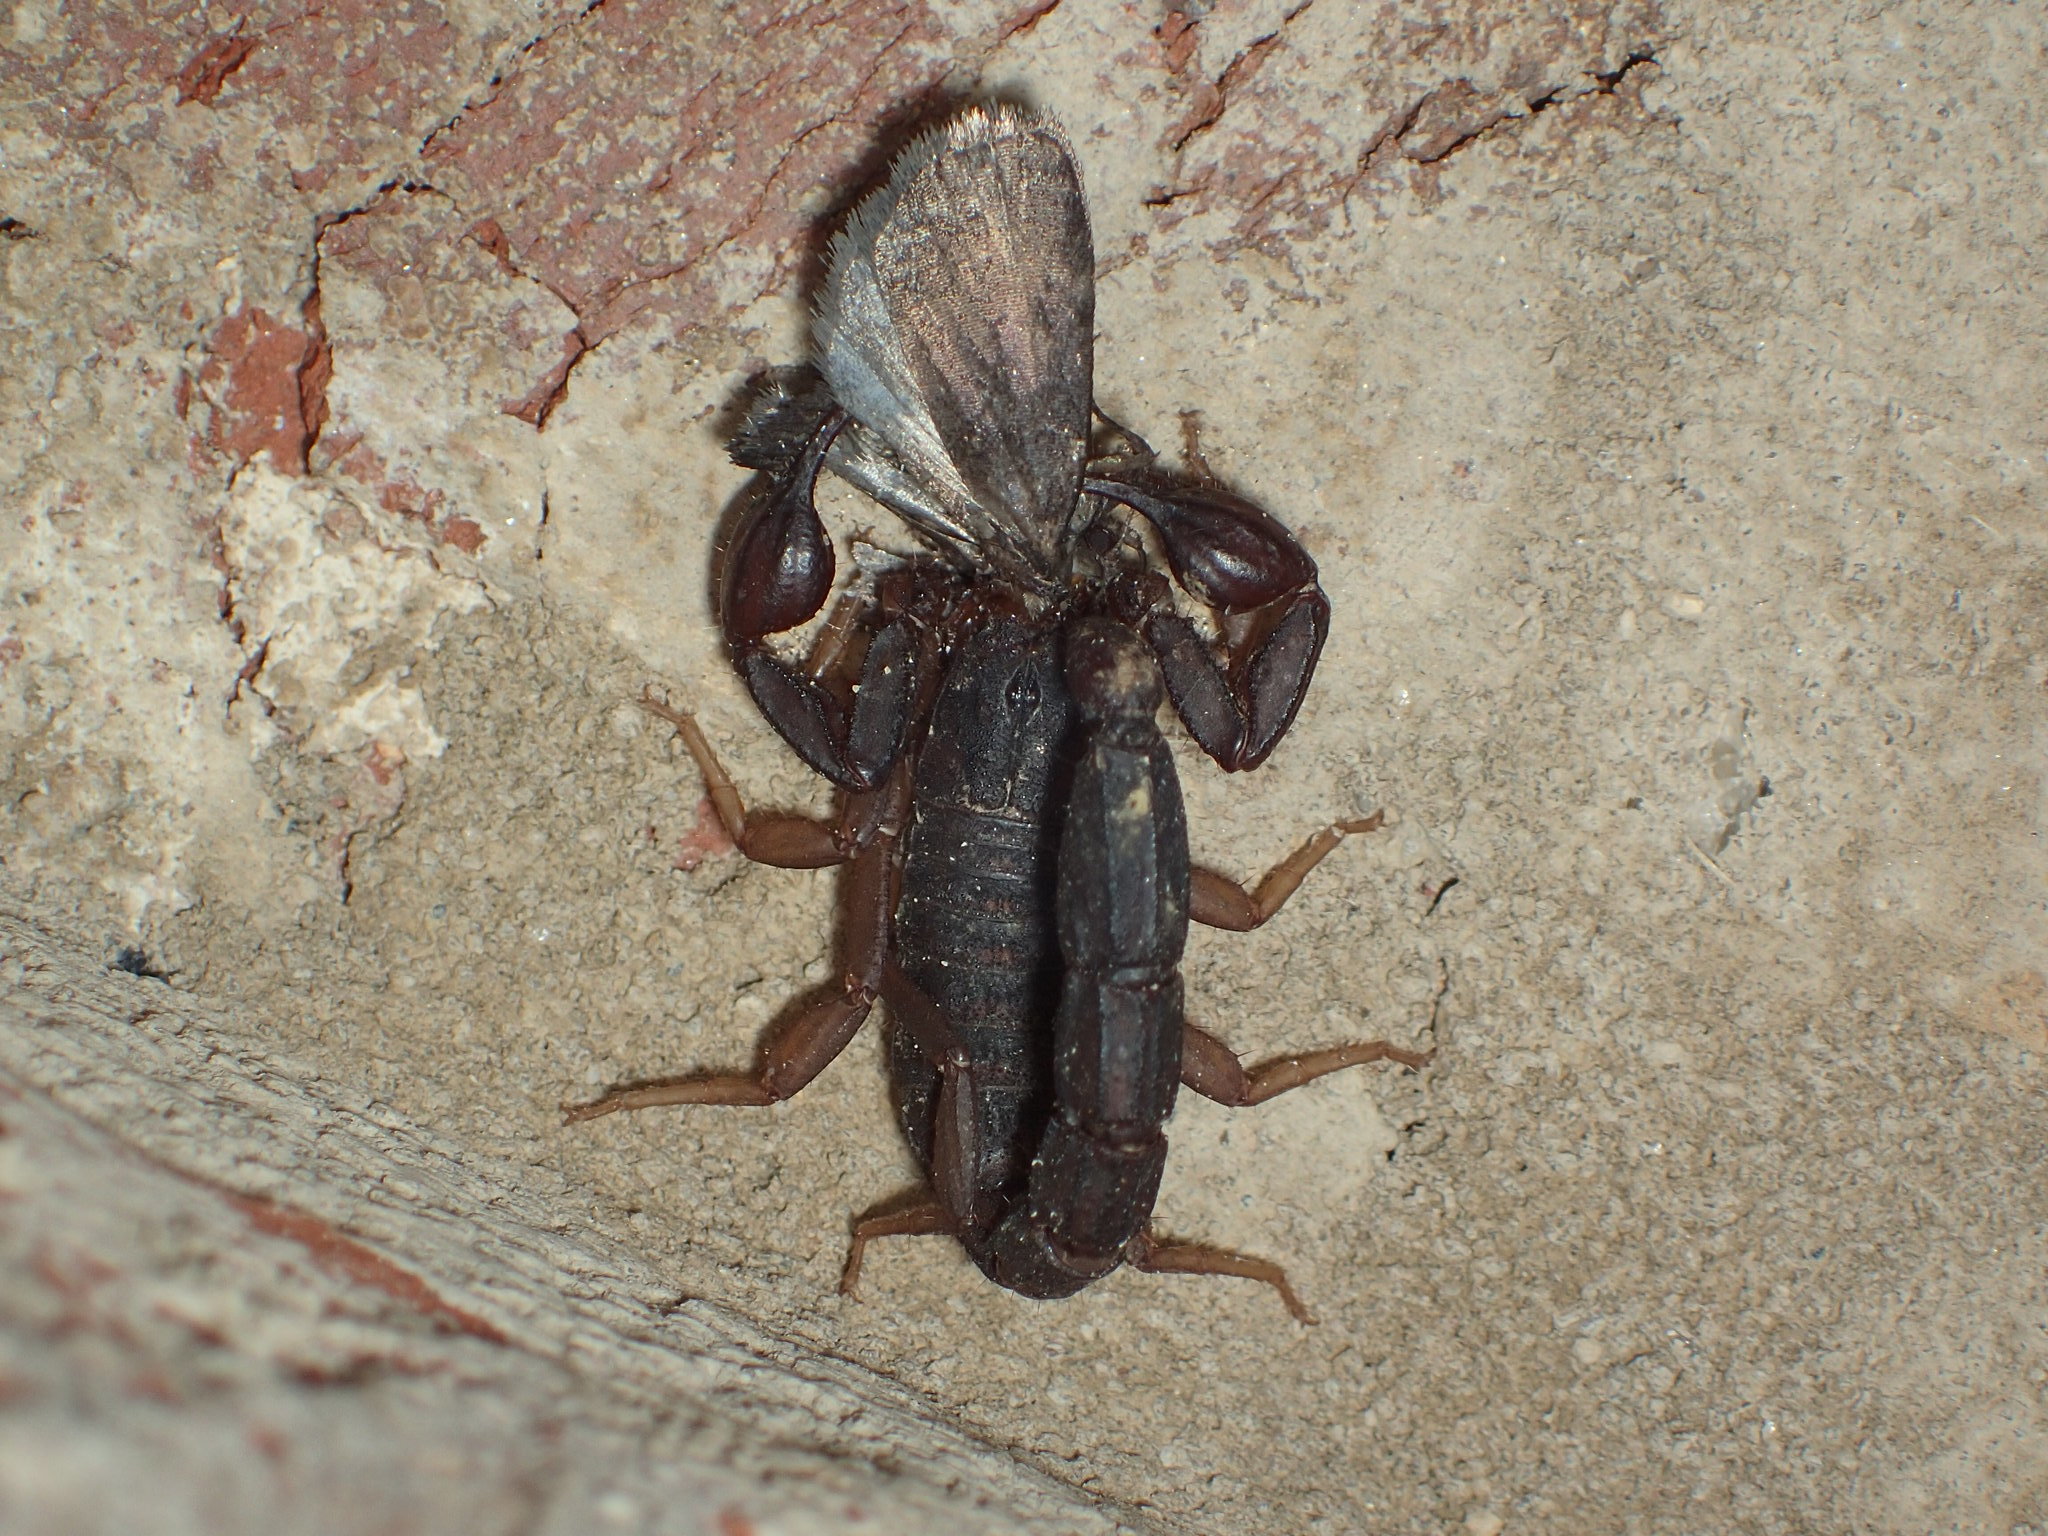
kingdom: Animalia
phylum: Arthropoda
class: Arachnida
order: Scorpiones
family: Vaejovidae
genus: Vaejovis
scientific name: Vaejovis carolinianus
